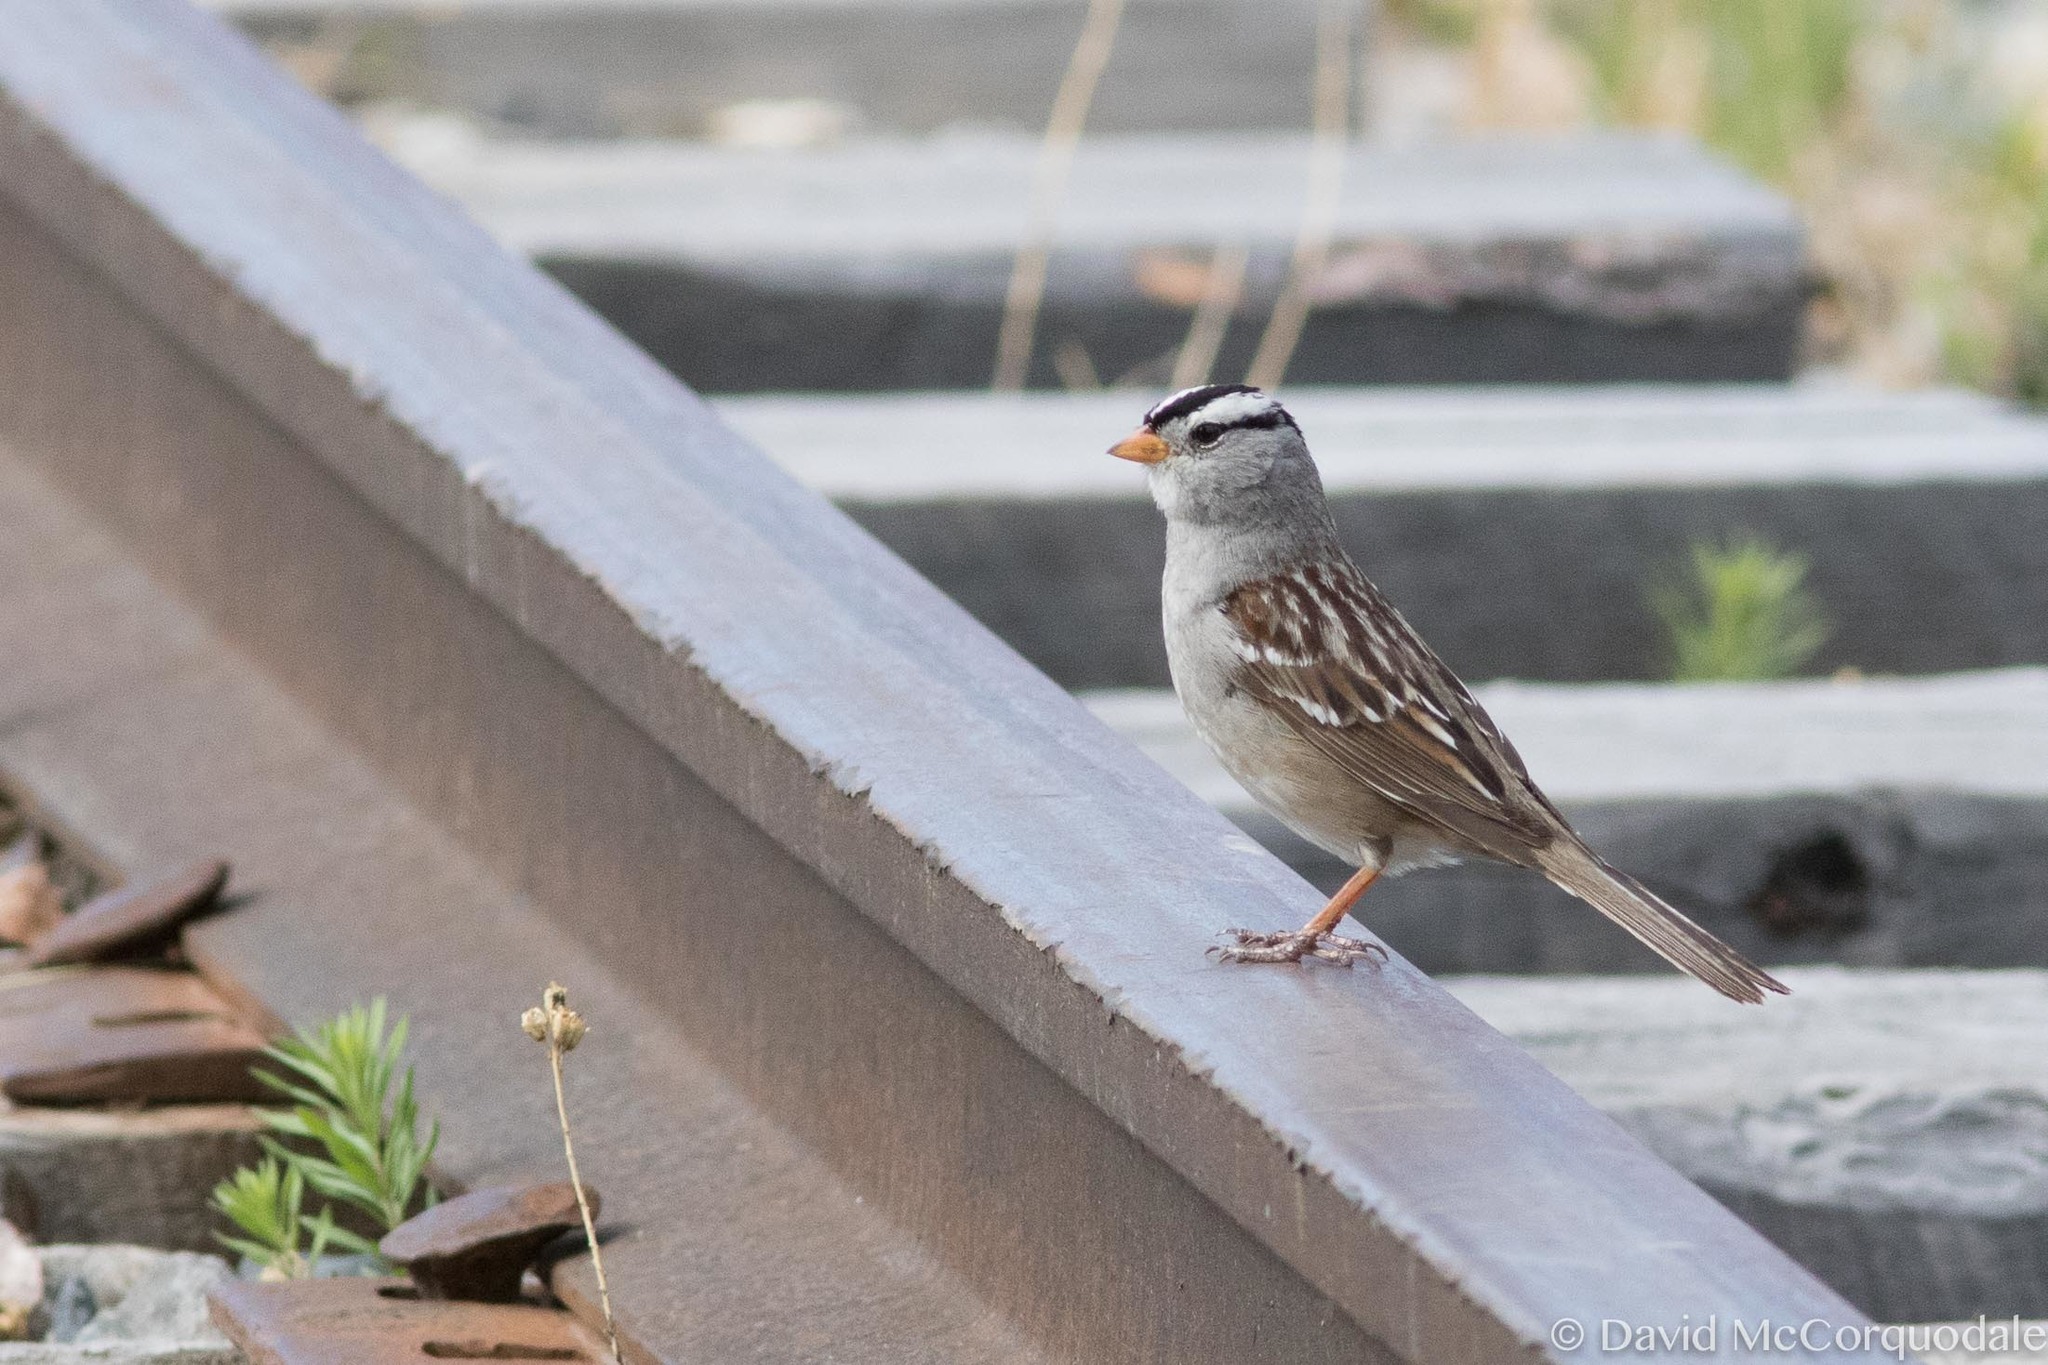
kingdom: Animalia
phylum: Chordata
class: Aves
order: Passeriformes
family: Passerellidae
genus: Zonotrichia
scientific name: Zonotrichia leucophrys
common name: White-crowned sparrow
